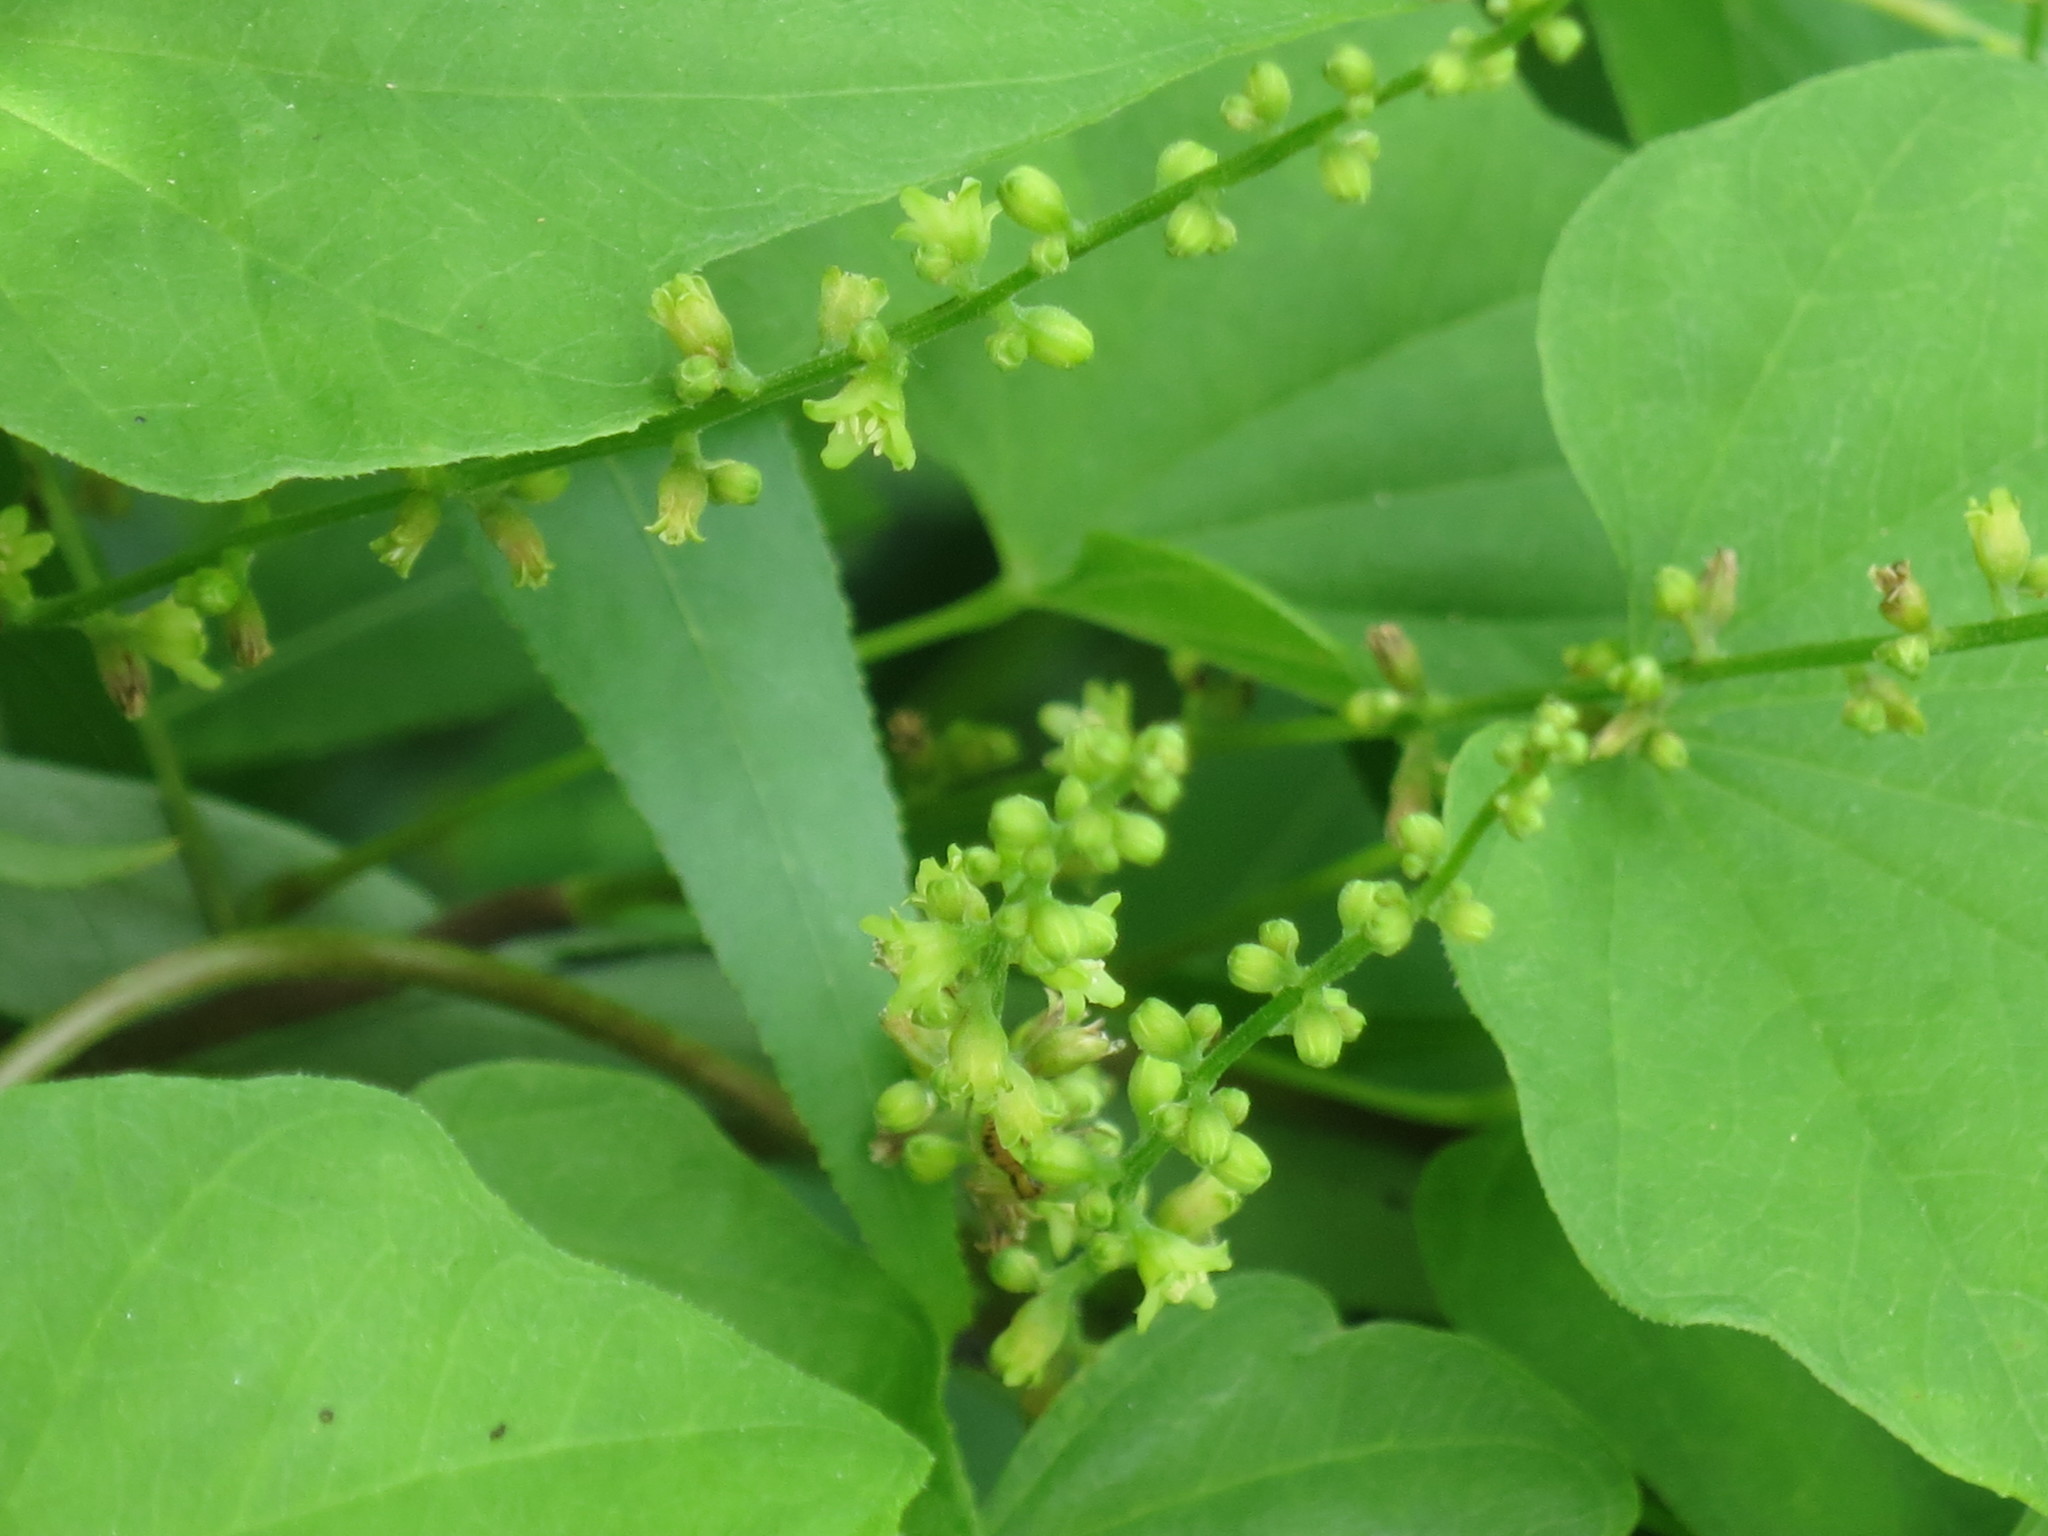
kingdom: Plantae
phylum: Tracheophyta
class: Liliopsida
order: Dioscoreales
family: Dioscoreaceae
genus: Dioscorea
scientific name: Dioscorea nipponica
